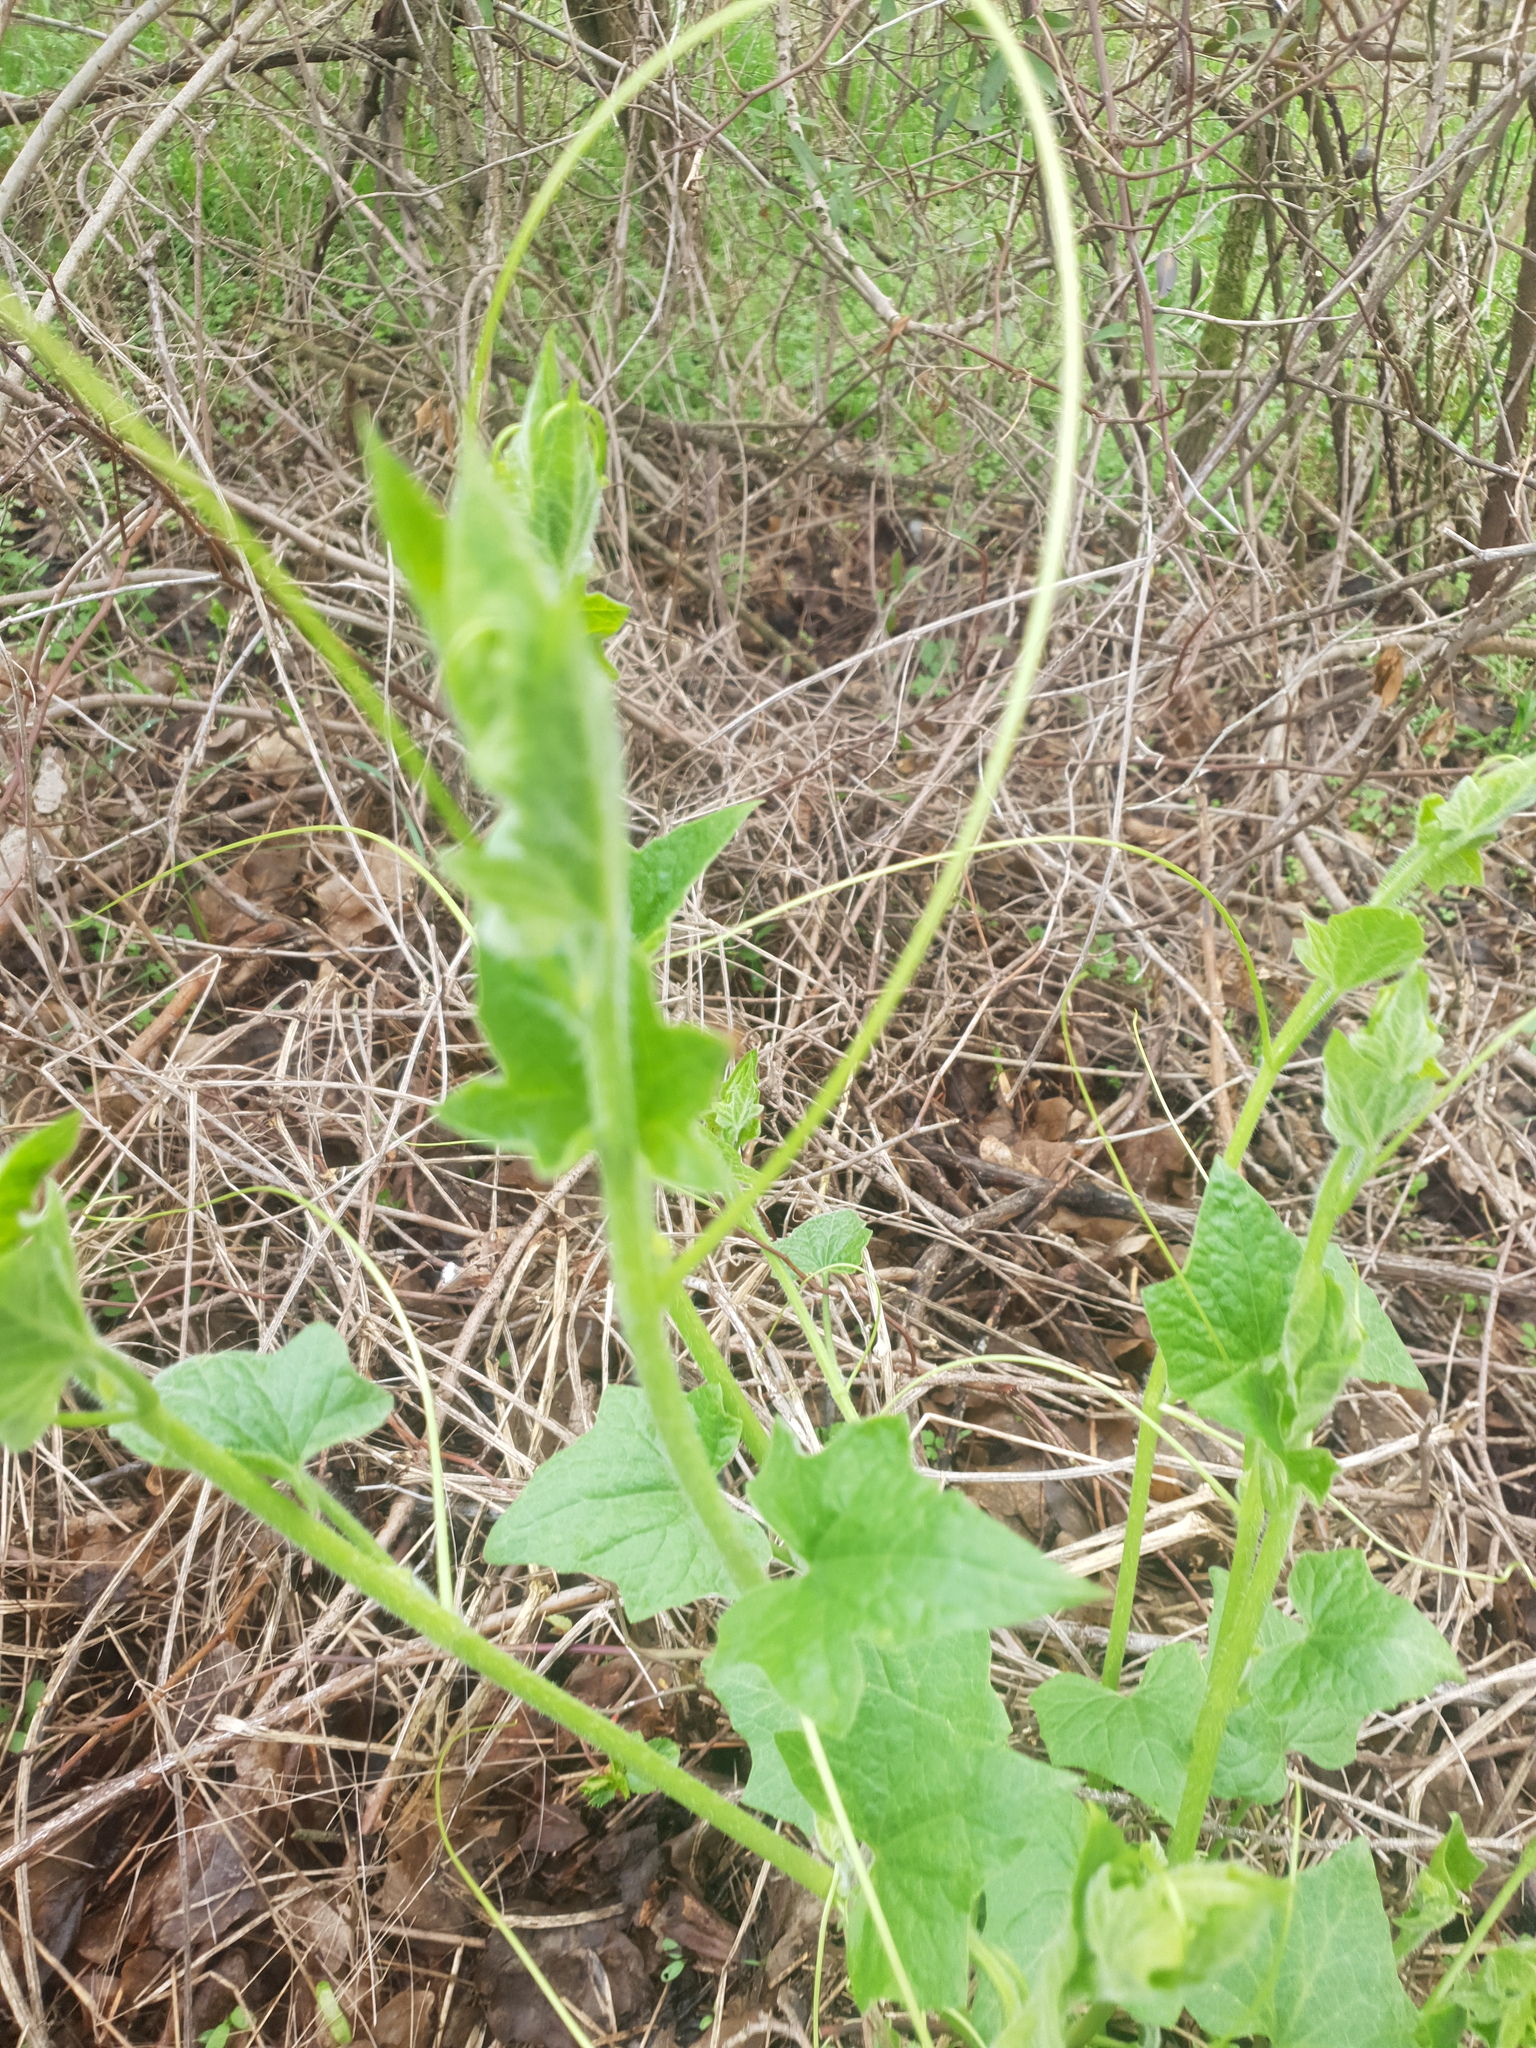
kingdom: Plantae
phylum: Tracheophyta
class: Magnoliopsida
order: Cucurbitales
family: Cucurbitaceae
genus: Bryonia
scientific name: Bryonia dioica
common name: White bryony
